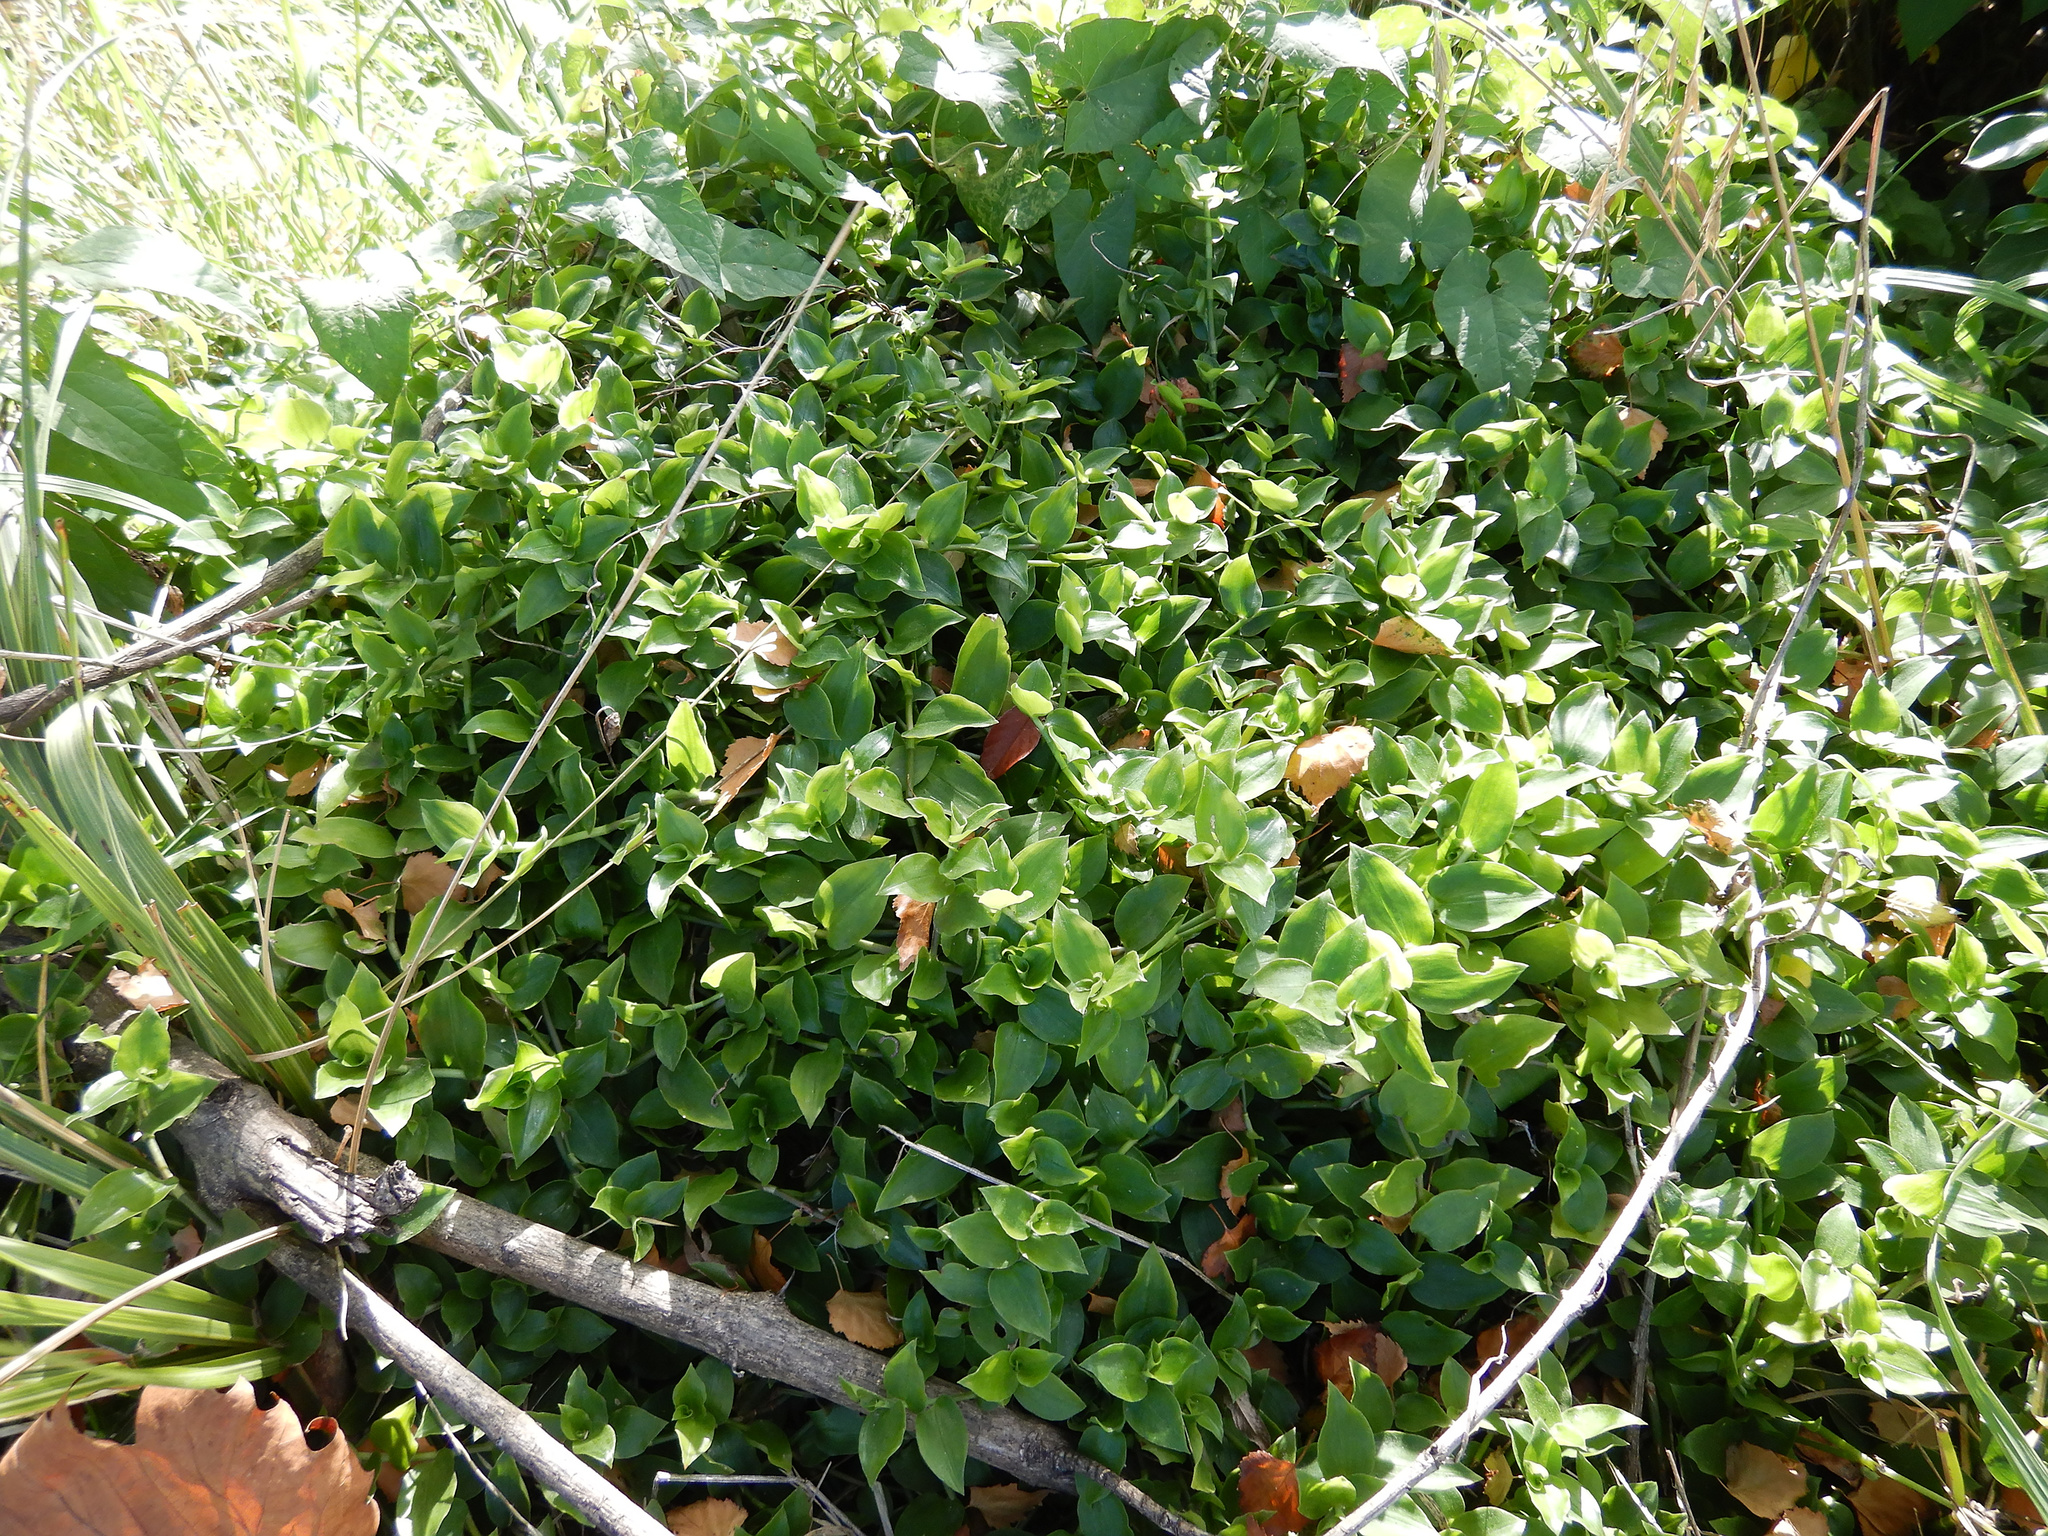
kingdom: Plantae
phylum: Tracheophyta
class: Liliopsida
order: Commelinales
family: Commelinaceae
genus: Tradescantia
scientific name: Tradescantia fluminensis
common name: Wandering-jew
